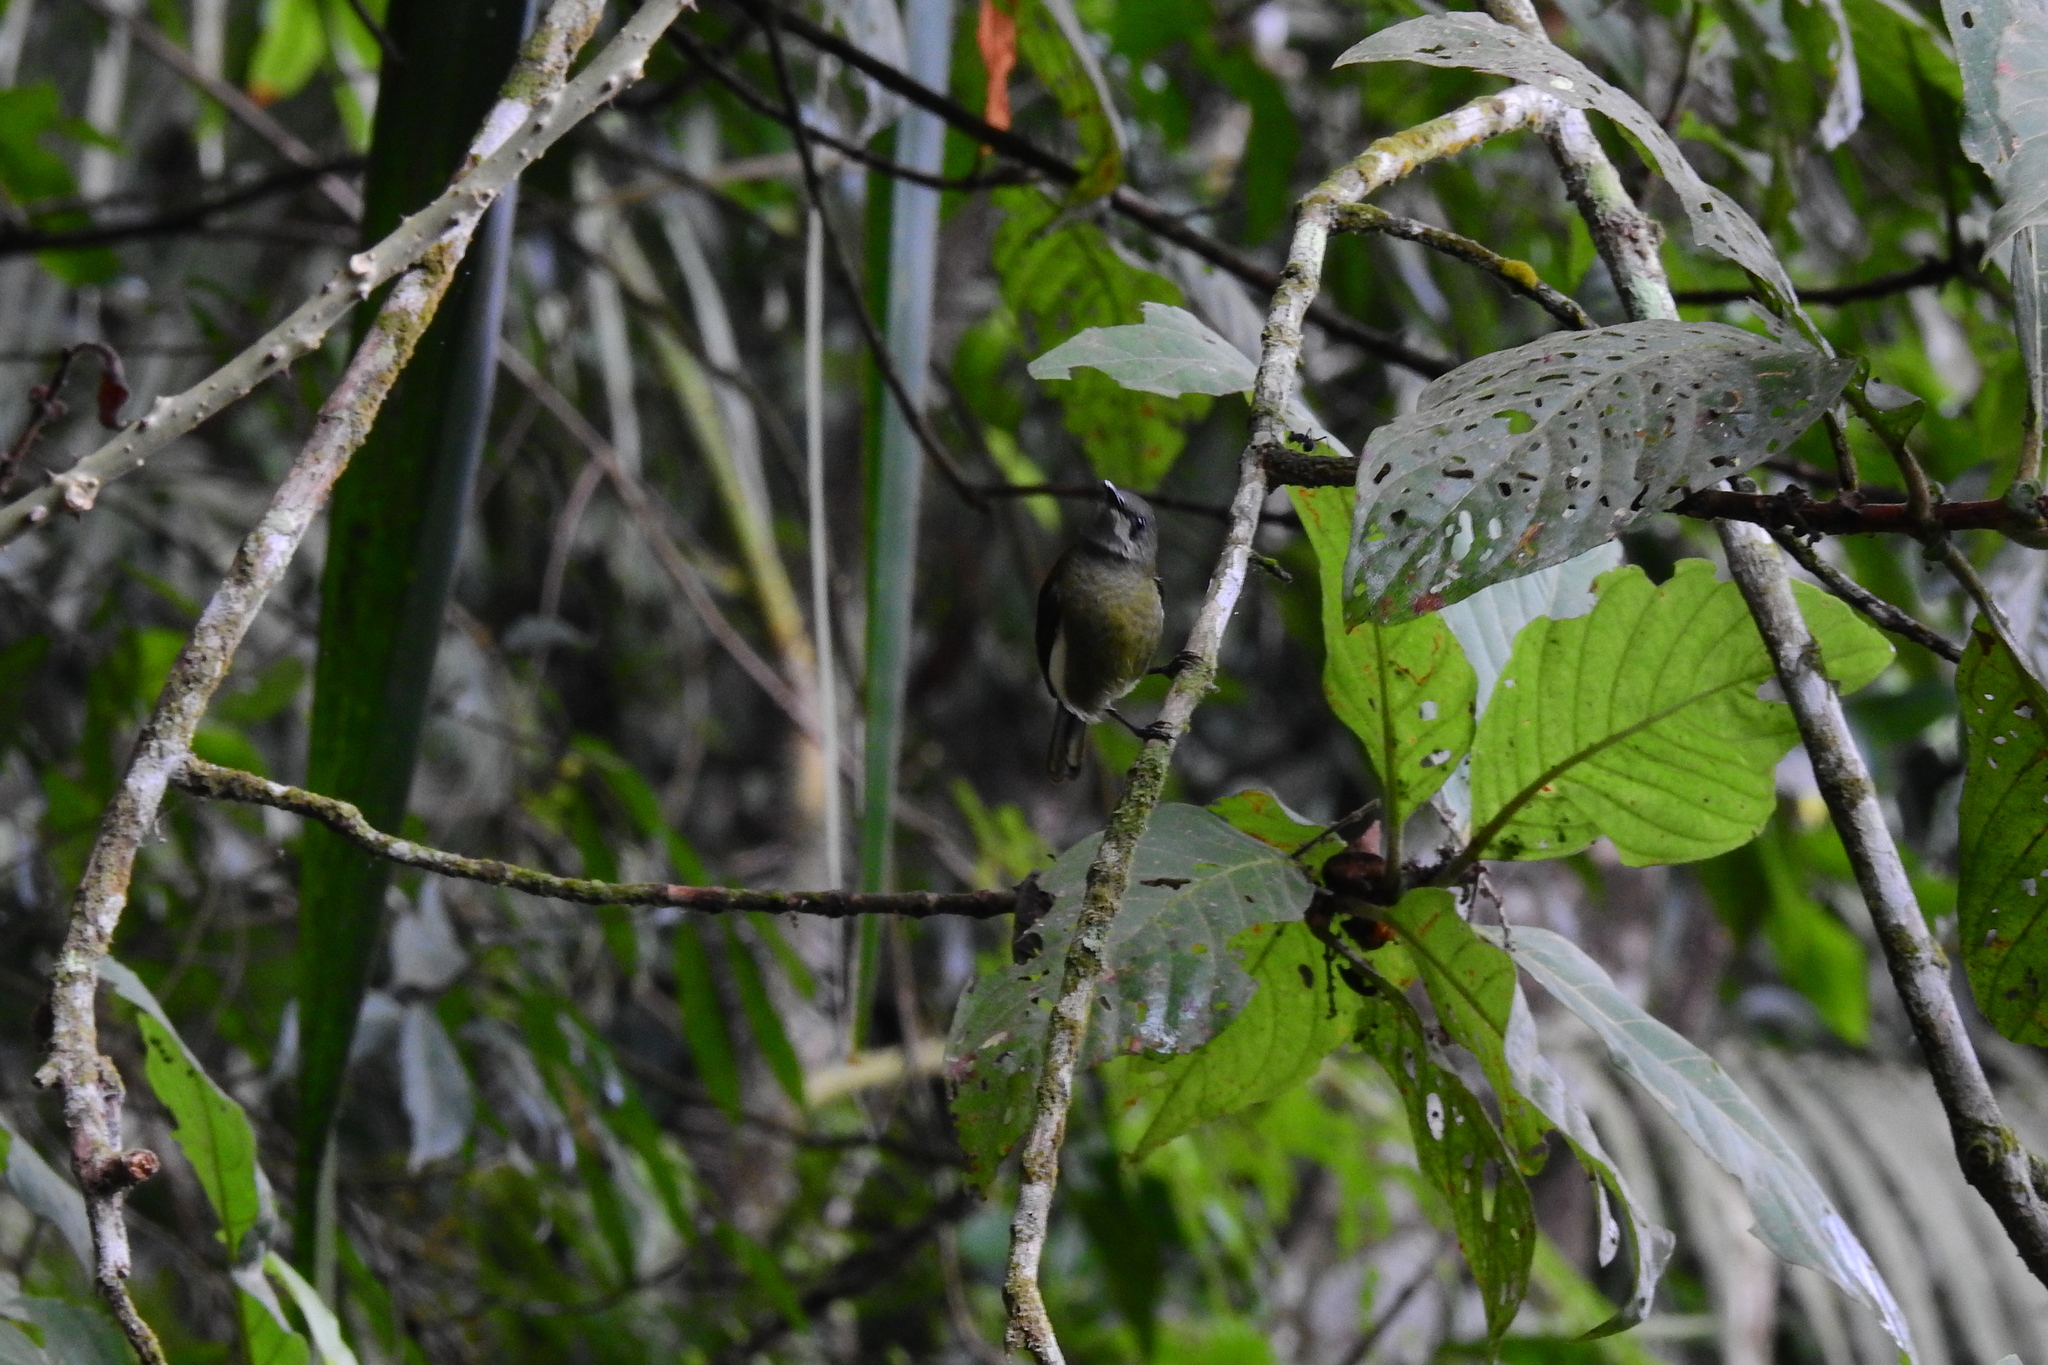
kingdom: Animalia
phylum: Chordata
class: Aves
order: Passeriformes
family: Nectariniidae
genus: Aethopyga
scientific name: Aethopyga eximia
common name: White-flanked sunbird
